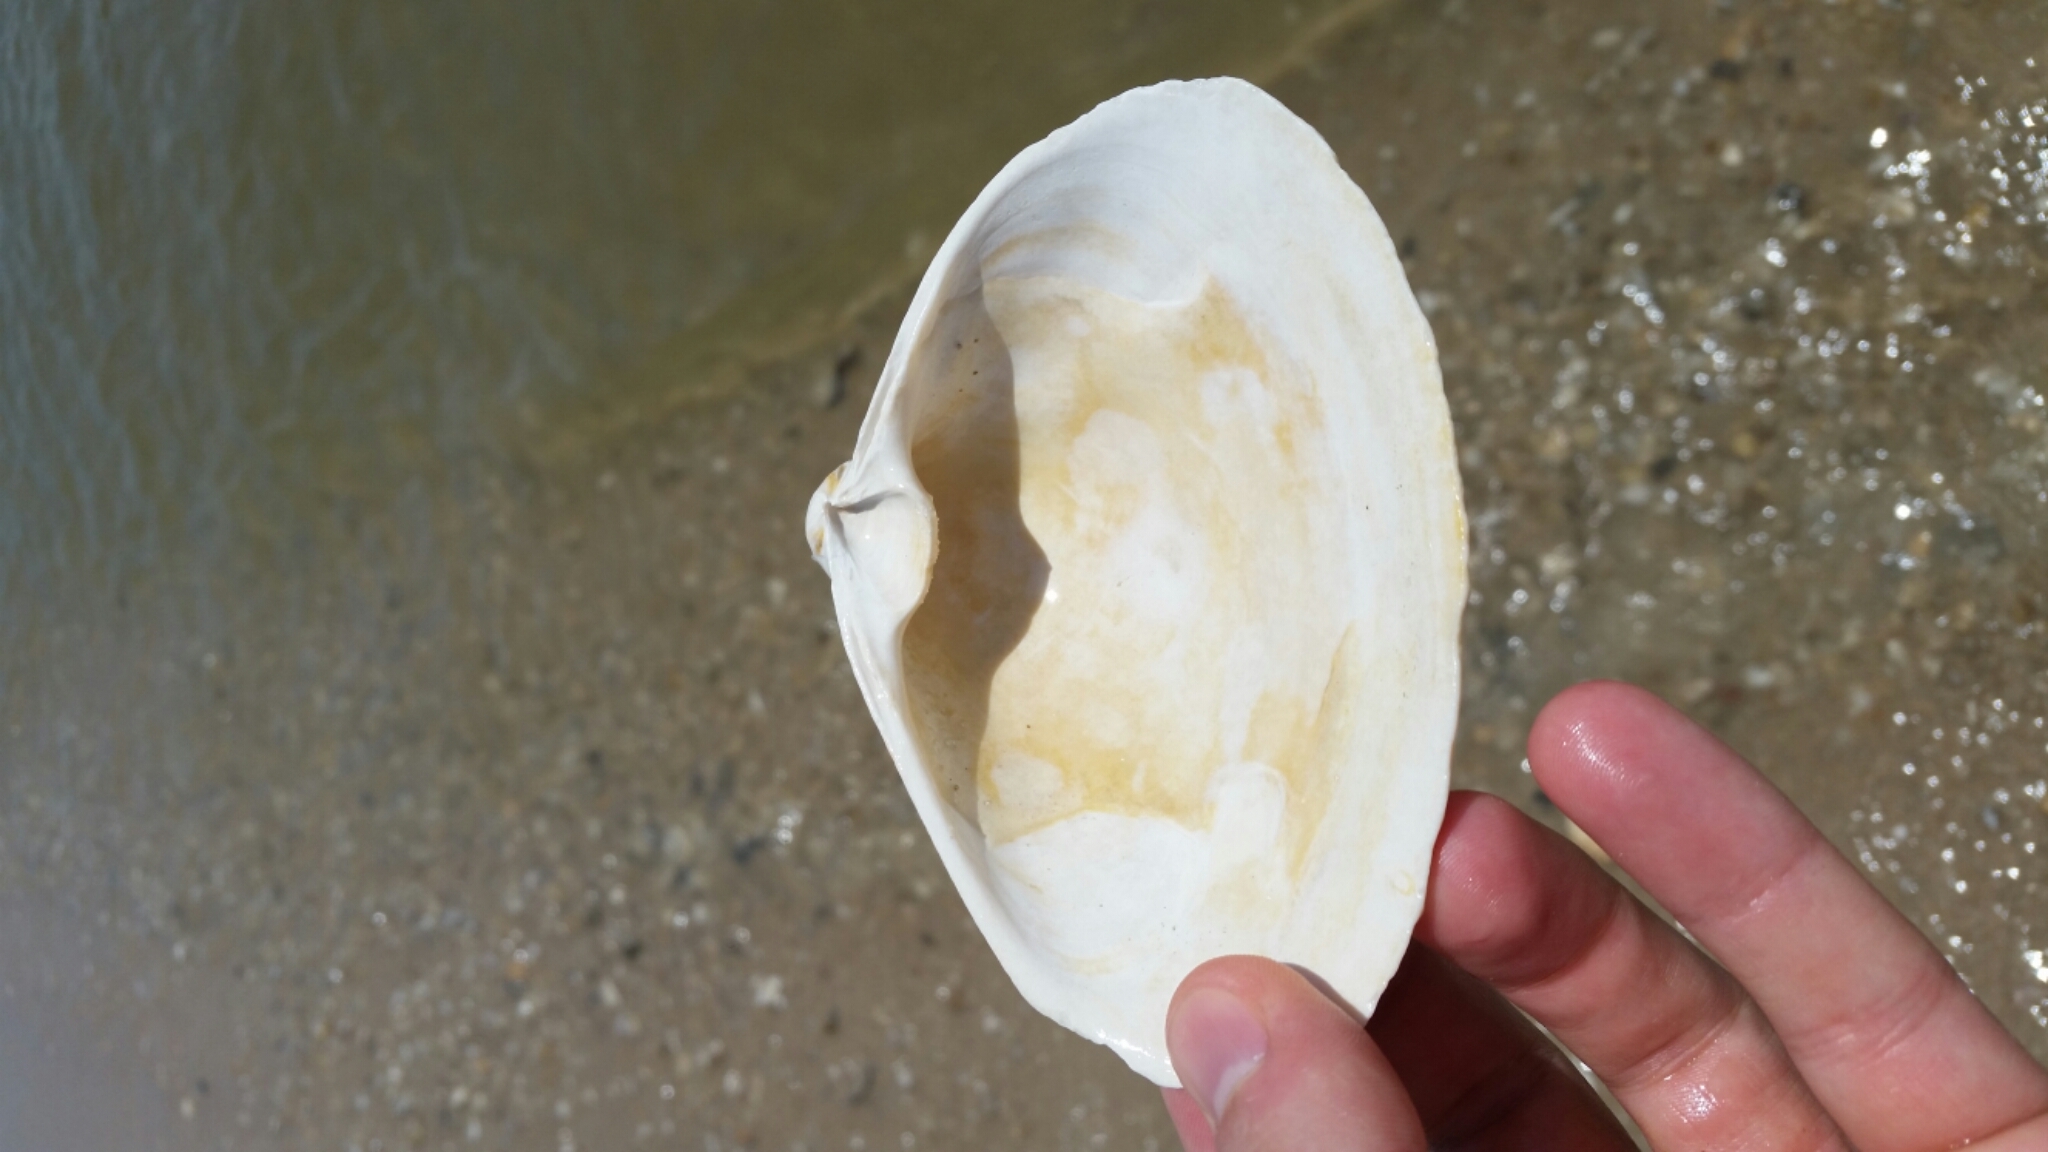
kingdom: Animalia
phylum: Mollusca
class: Bivalvia
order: Venerida
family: Mactridae
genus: Spisula
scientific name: Spisula solidissima
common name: Atlantic surf clam
